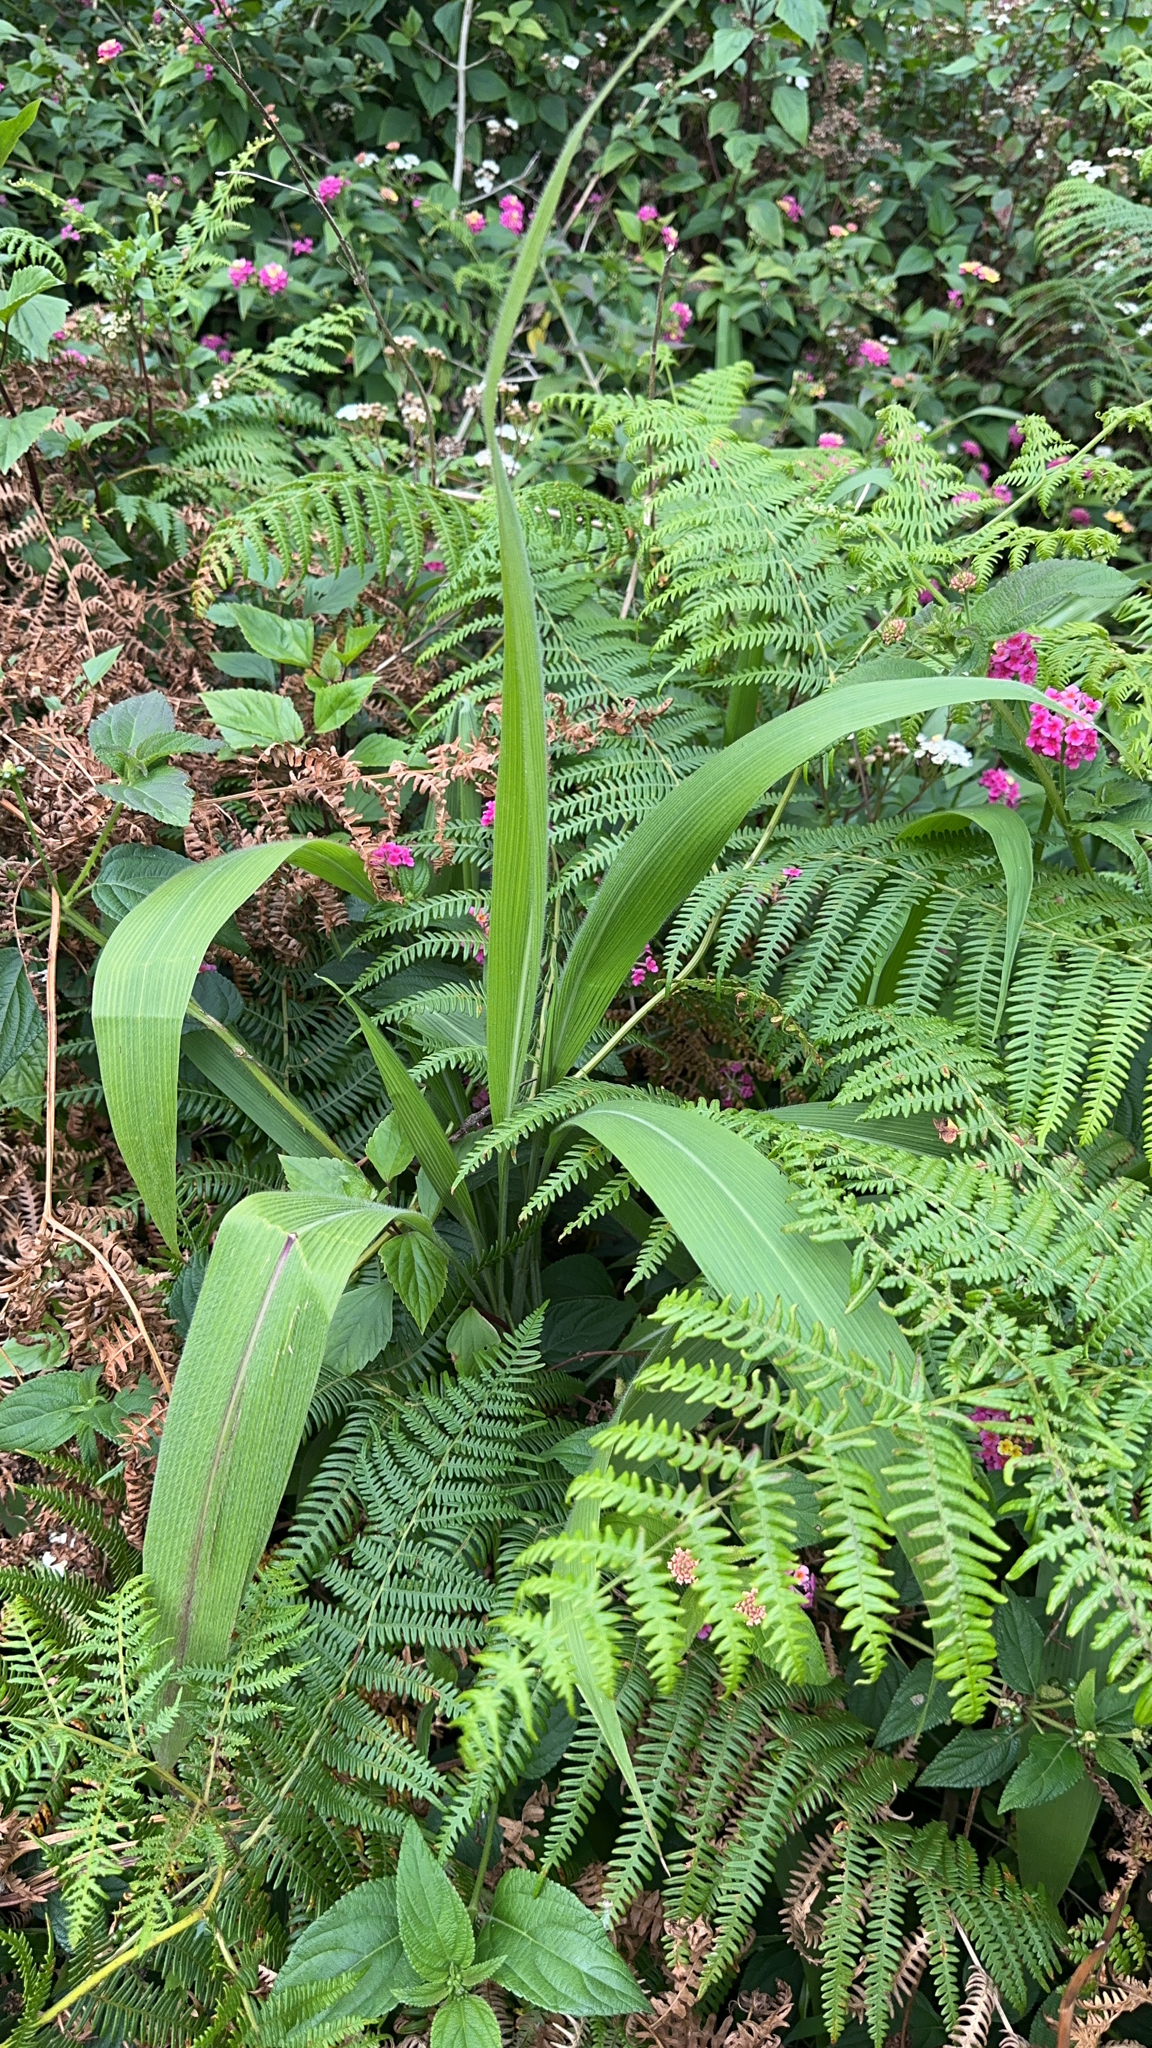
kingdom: Plantae
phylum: Tracheophyta
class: Liliopsida
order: Poales
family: Poaceae
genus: Setaria
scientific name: Setaria palmifolia
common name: Broadleaved bristlegrass
